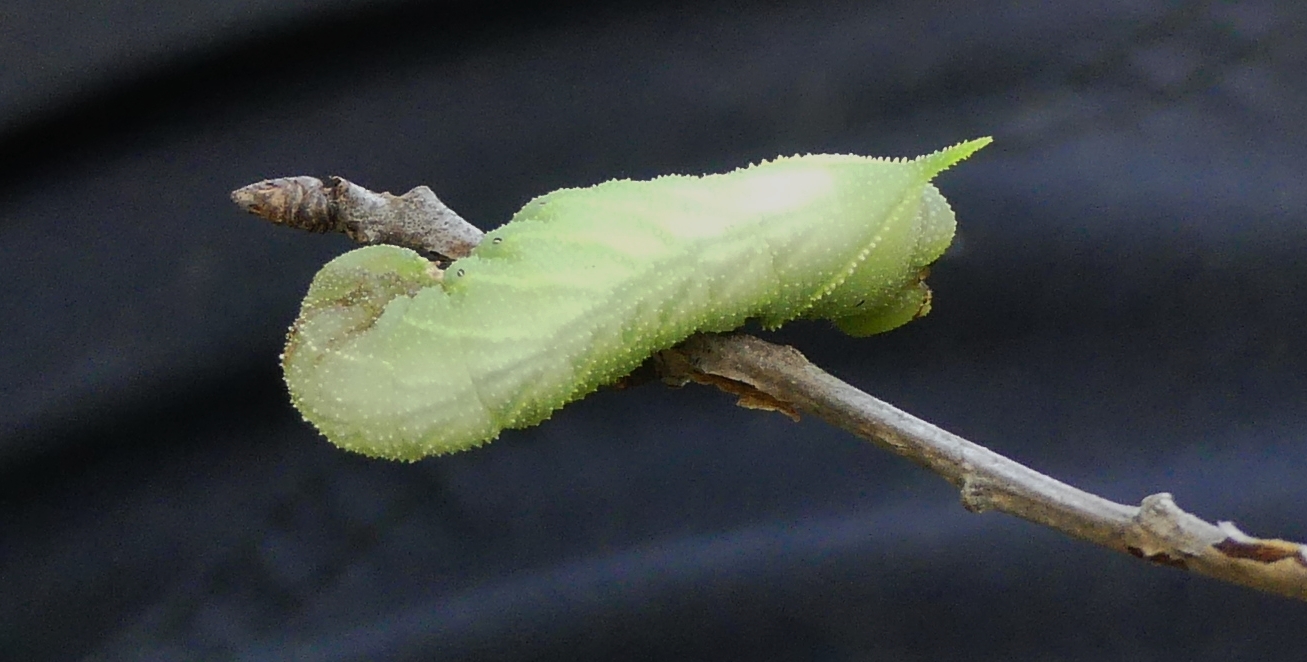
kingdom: Animalia
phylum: Arthropoda
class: Insecta
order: Lepidoptera
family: Sphingidae
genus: Paonias
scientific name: Paonias excaecata
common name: Blind-eyed sphinx
